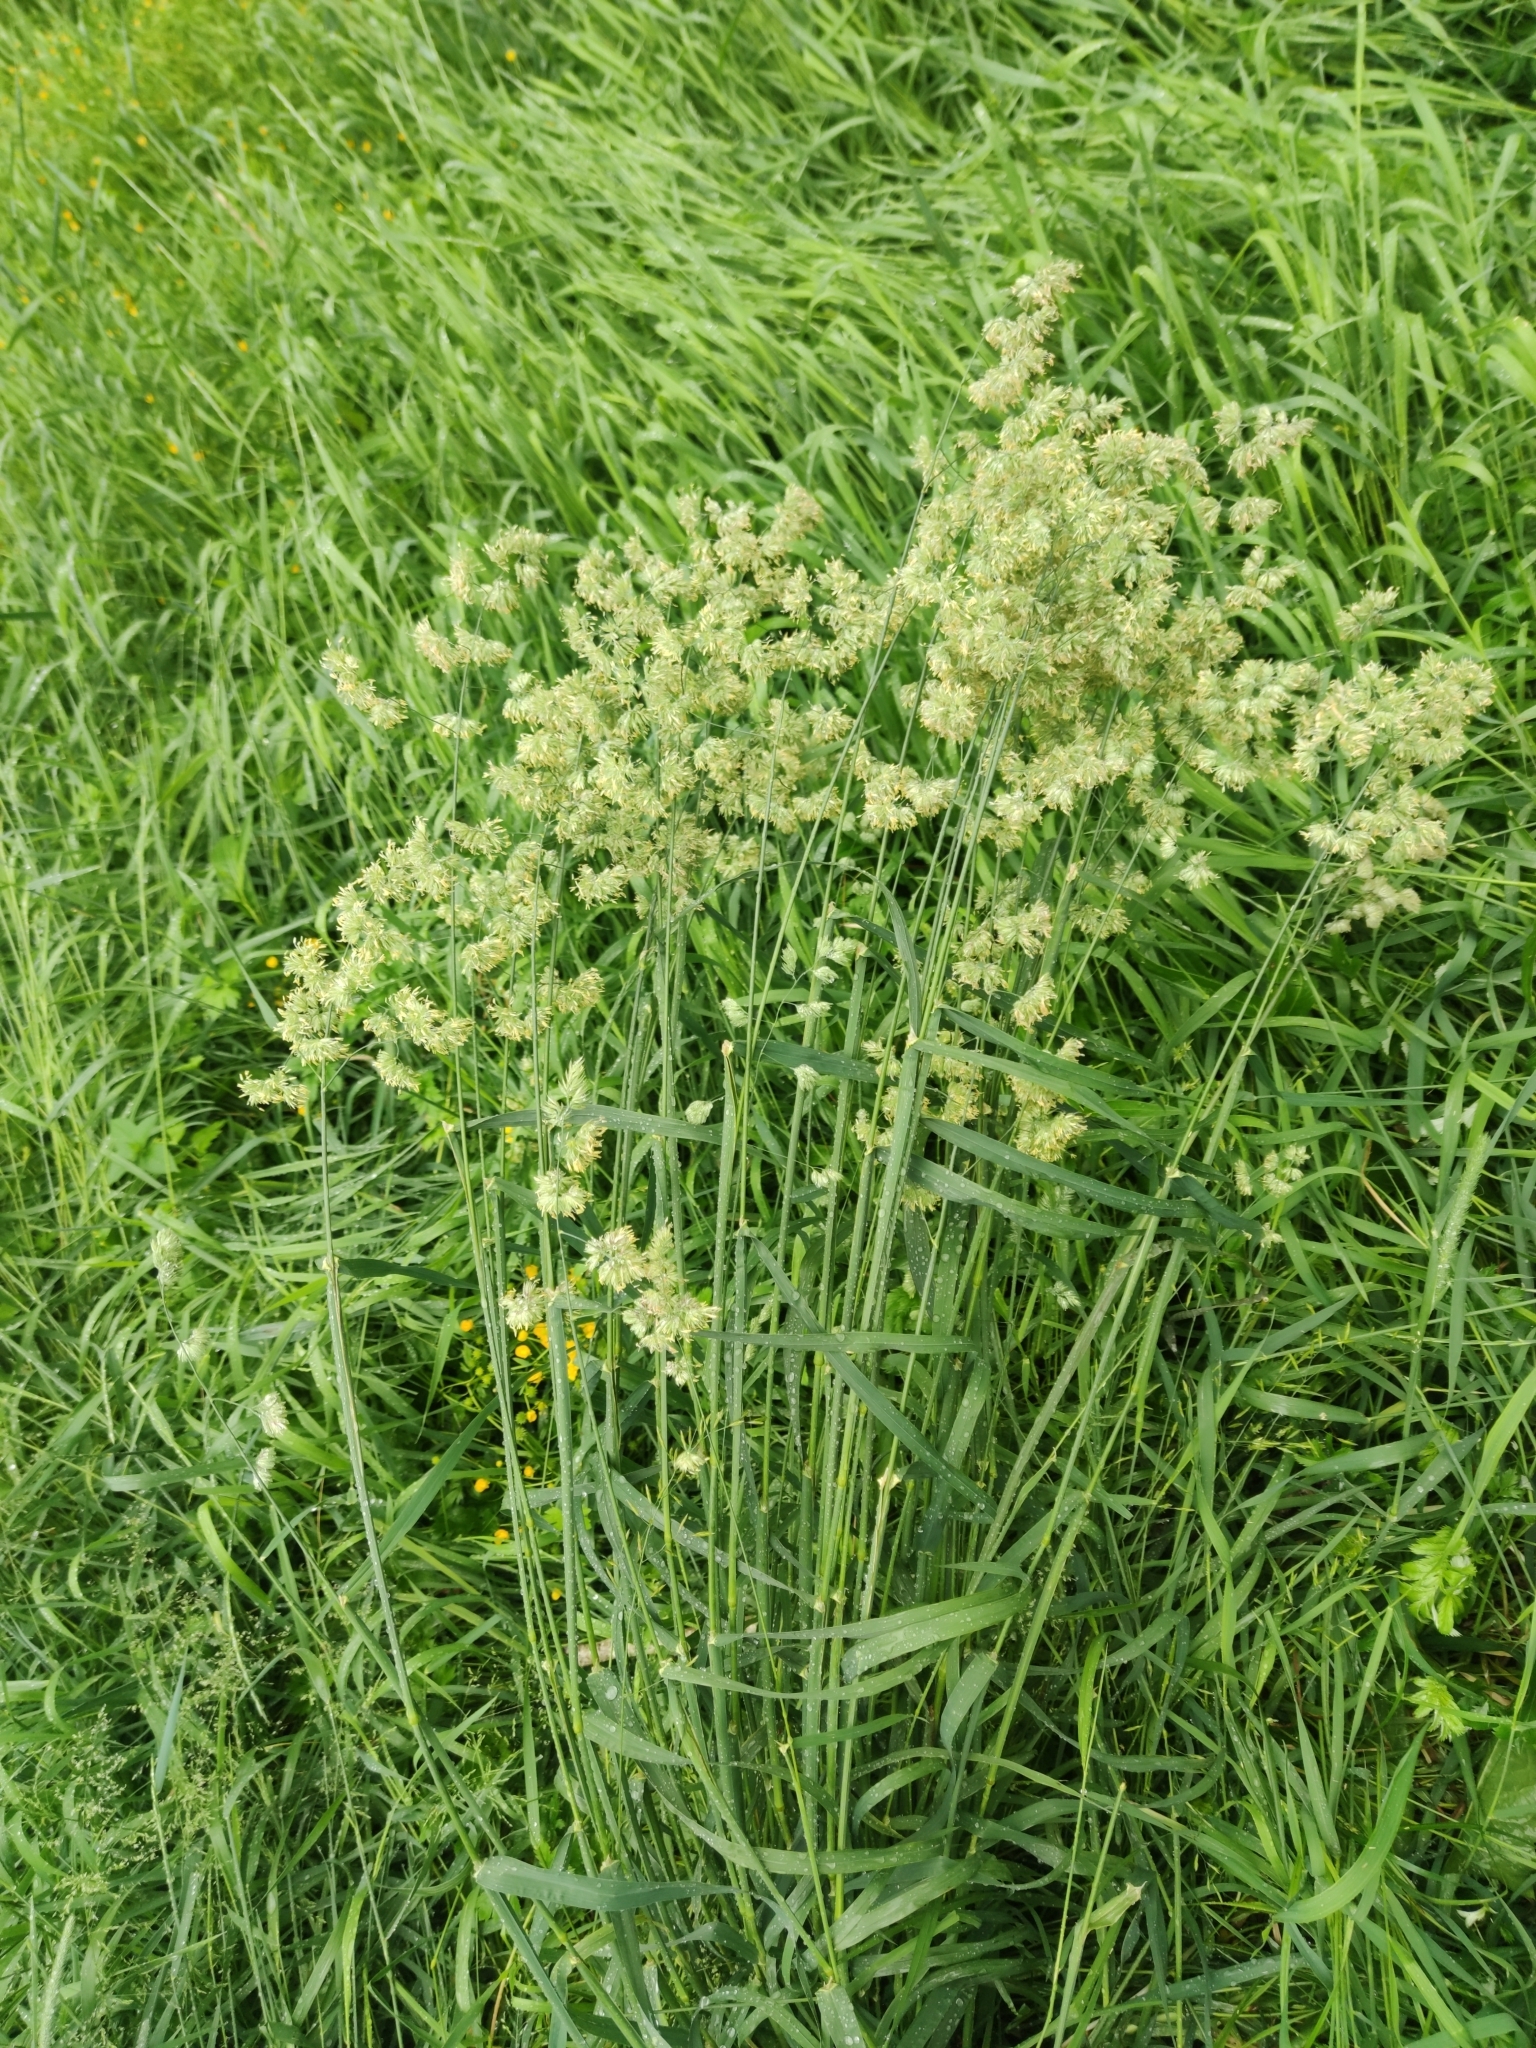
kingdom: Plantae
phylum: Tracheophyta
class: Liliopsida
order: Poales
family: Poaceae
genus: Dactylis
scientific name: Dactylis glomerata
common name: Orchardgrass
